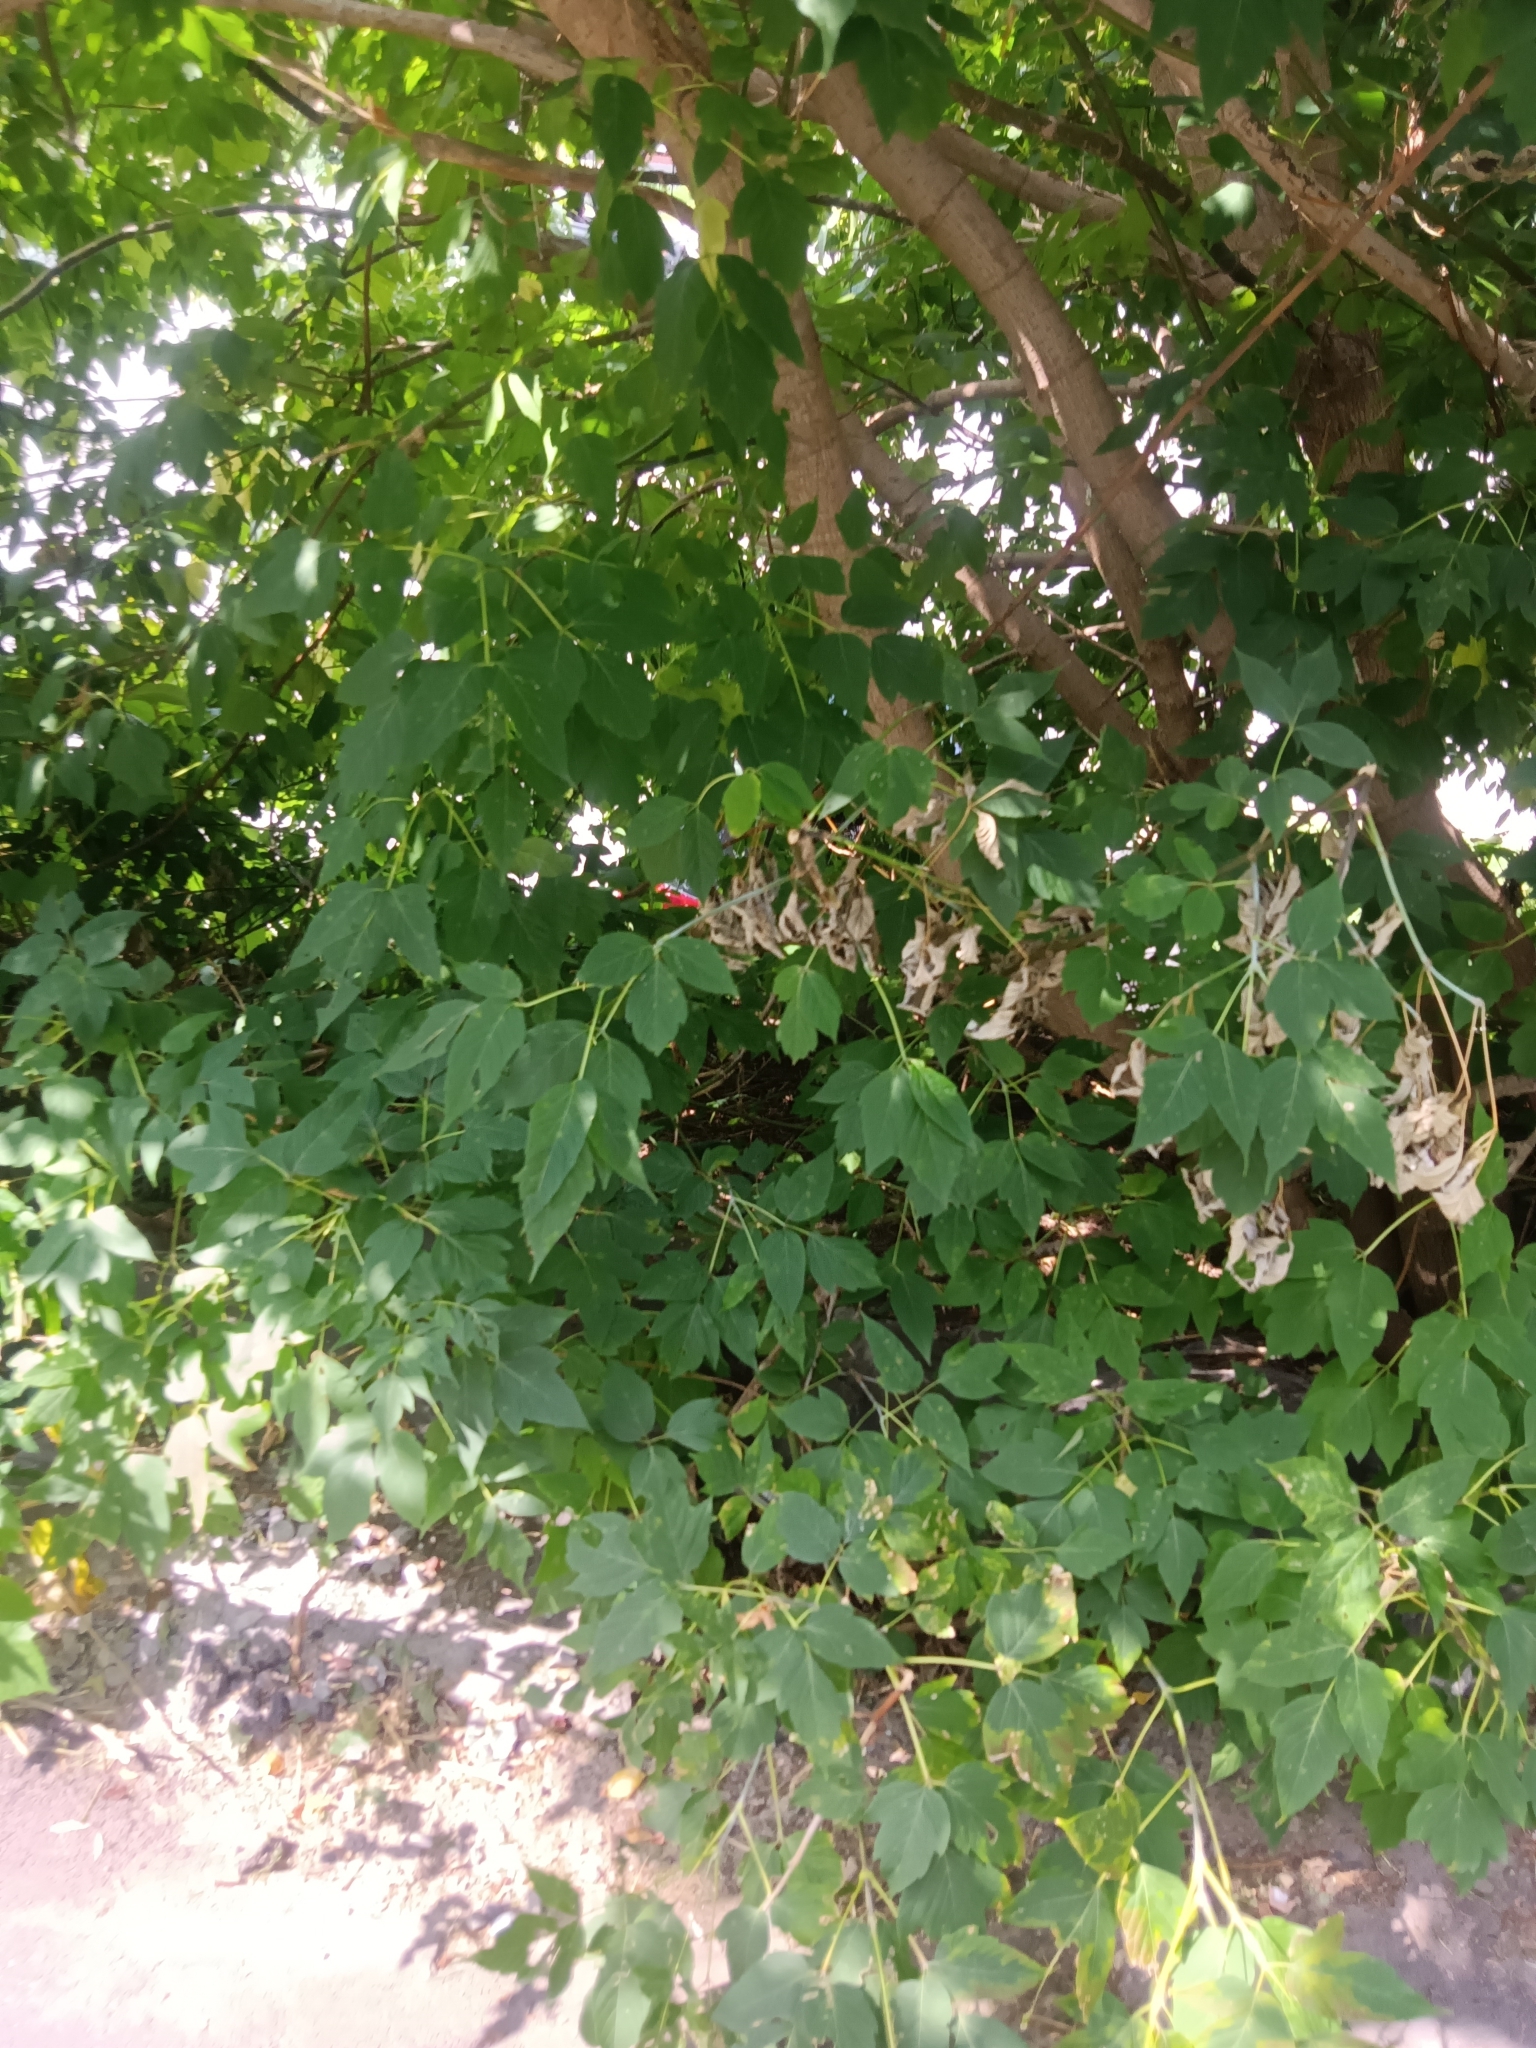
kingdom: Plantae
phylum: Tracheophyta
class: Magnoliopsida
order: Sapindales
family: Sapindaceae
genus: Acer
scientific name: Acer negundo
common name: Ashleaf maple
